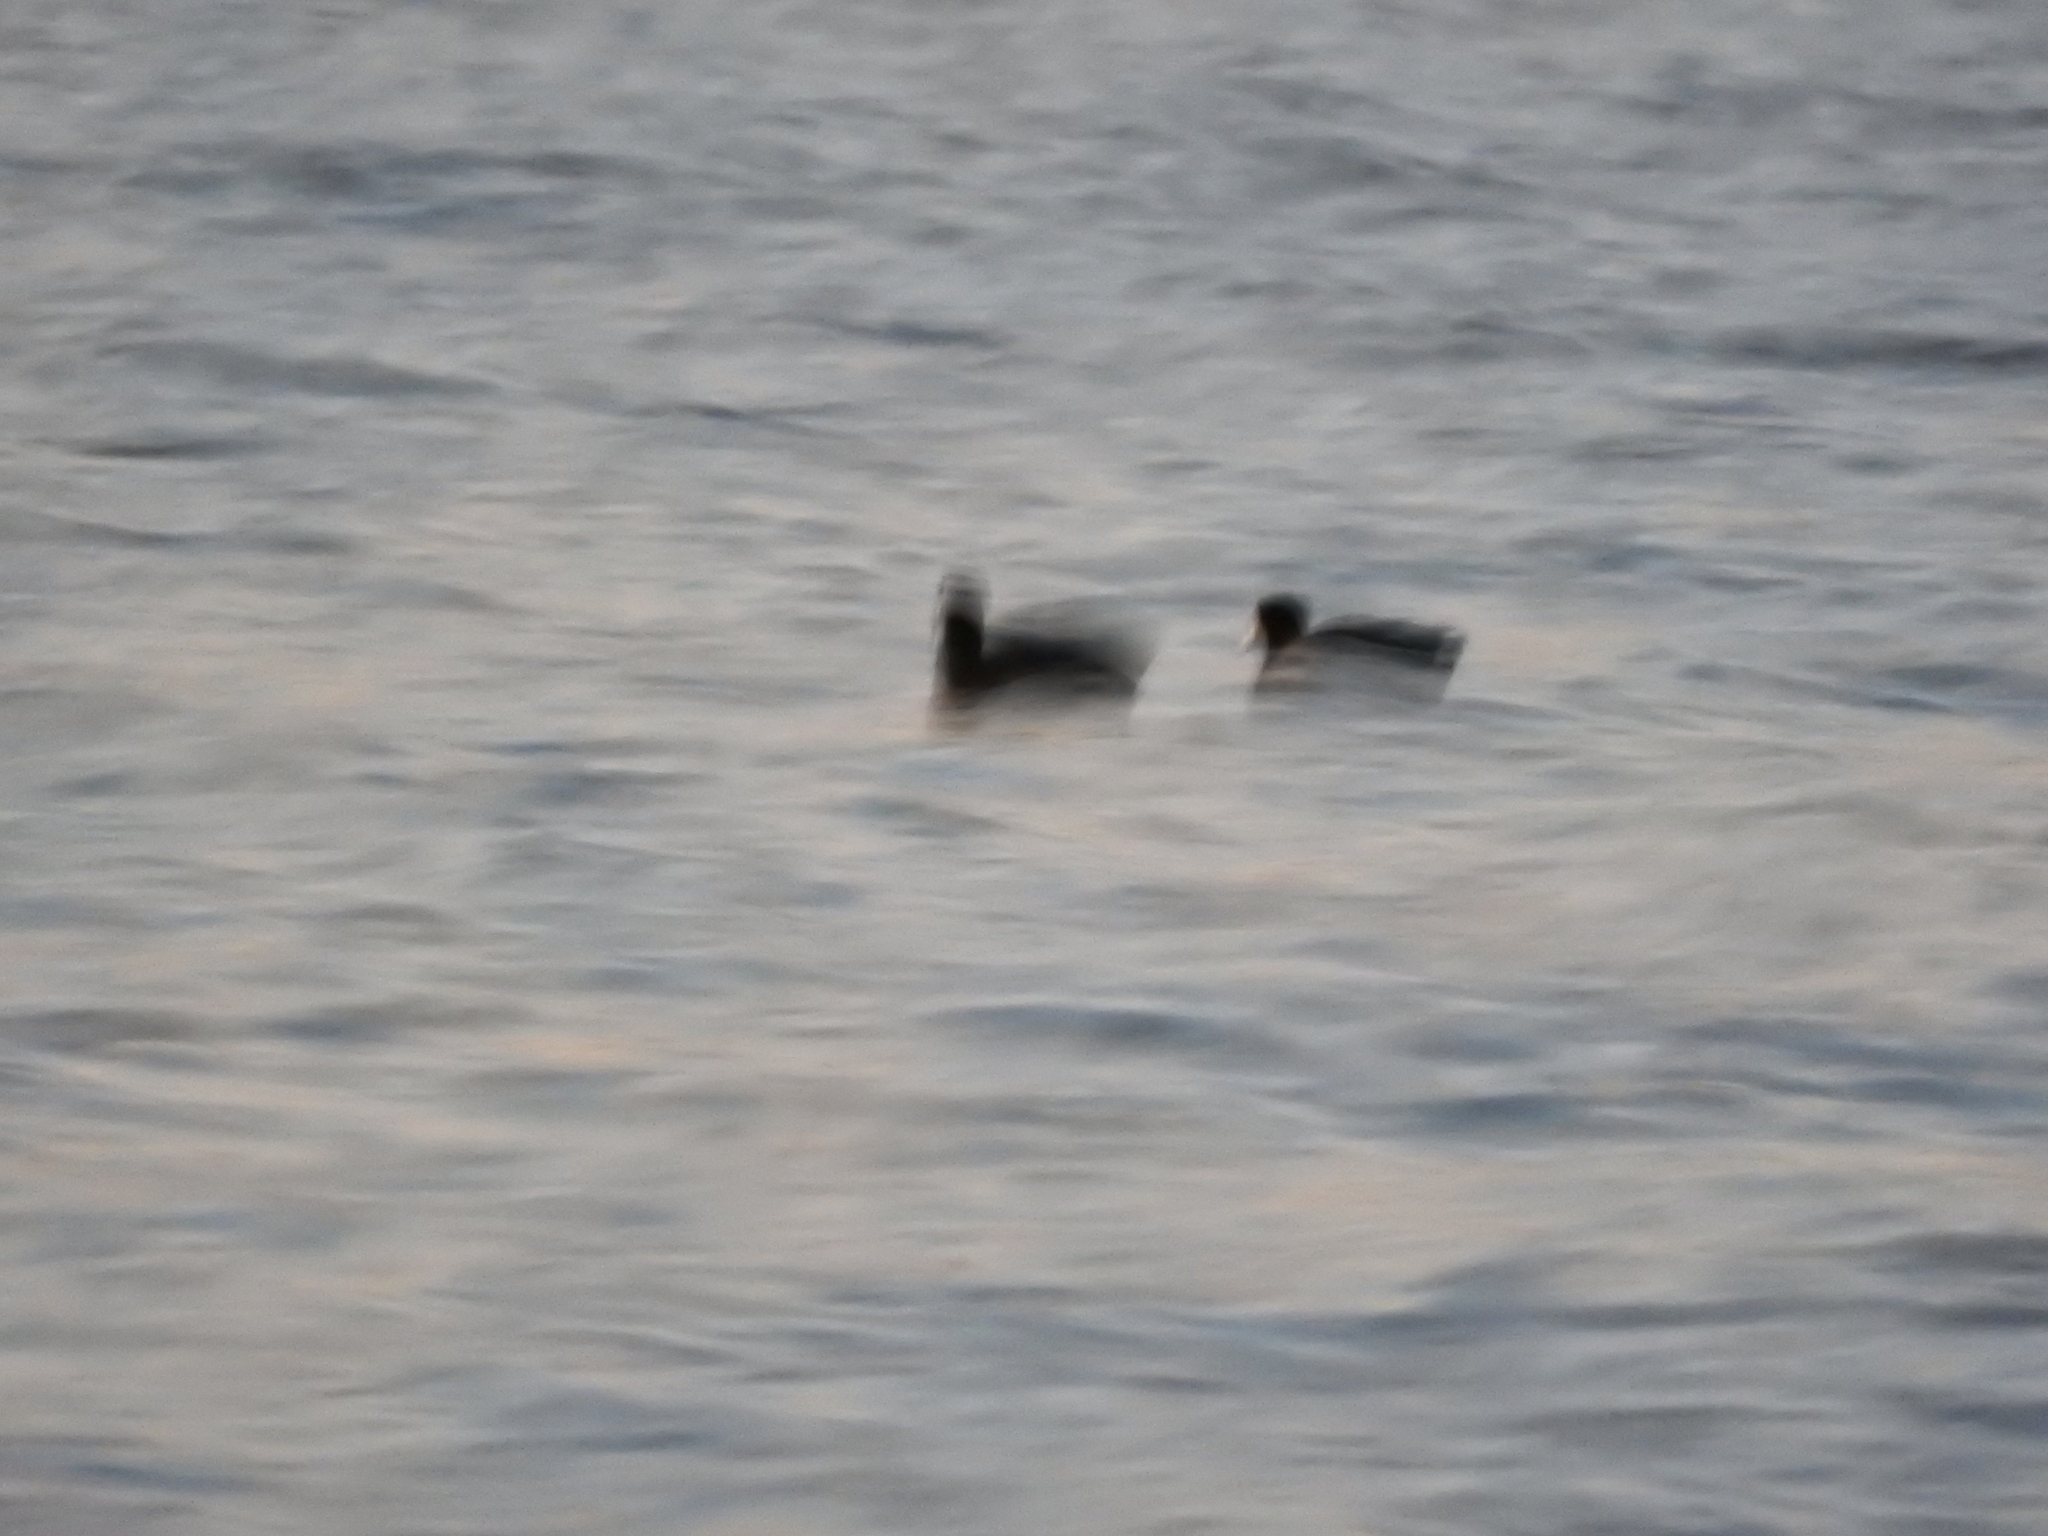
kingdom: Animalia
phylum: Chordata
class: Aves
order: Gruiformes
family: Rallidae
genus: Fulica
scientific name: Fulica americana
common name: American coot
